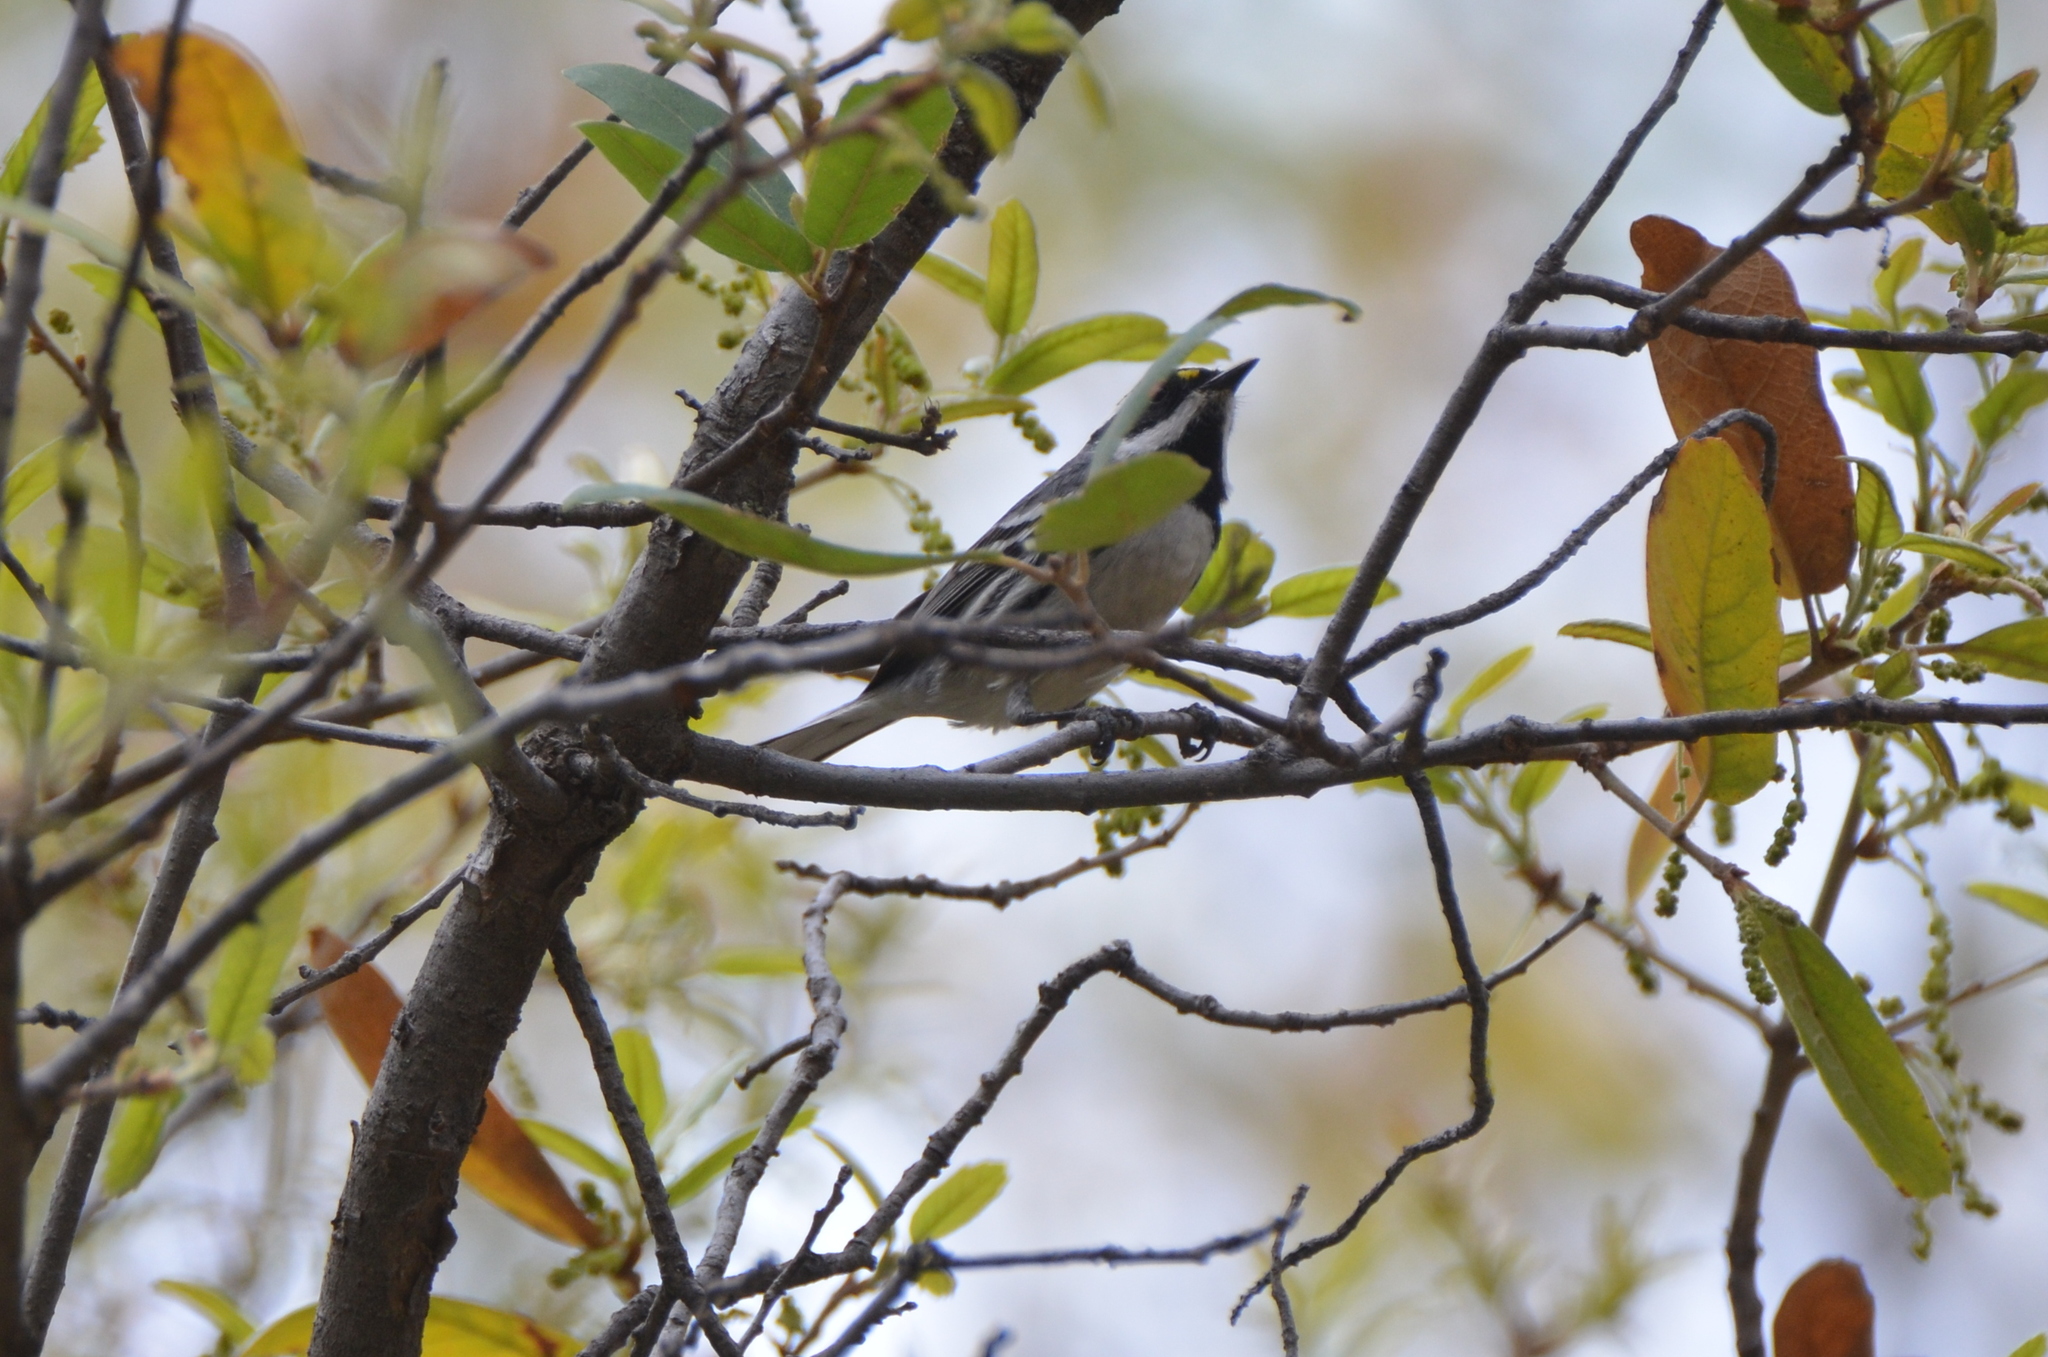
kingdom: Animalia
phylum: Chordata
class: Aves
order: Passeriformes
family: Parulidae
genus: Setophaga
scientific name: Setophaga nigrescens
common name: Black-throated gray warbler
